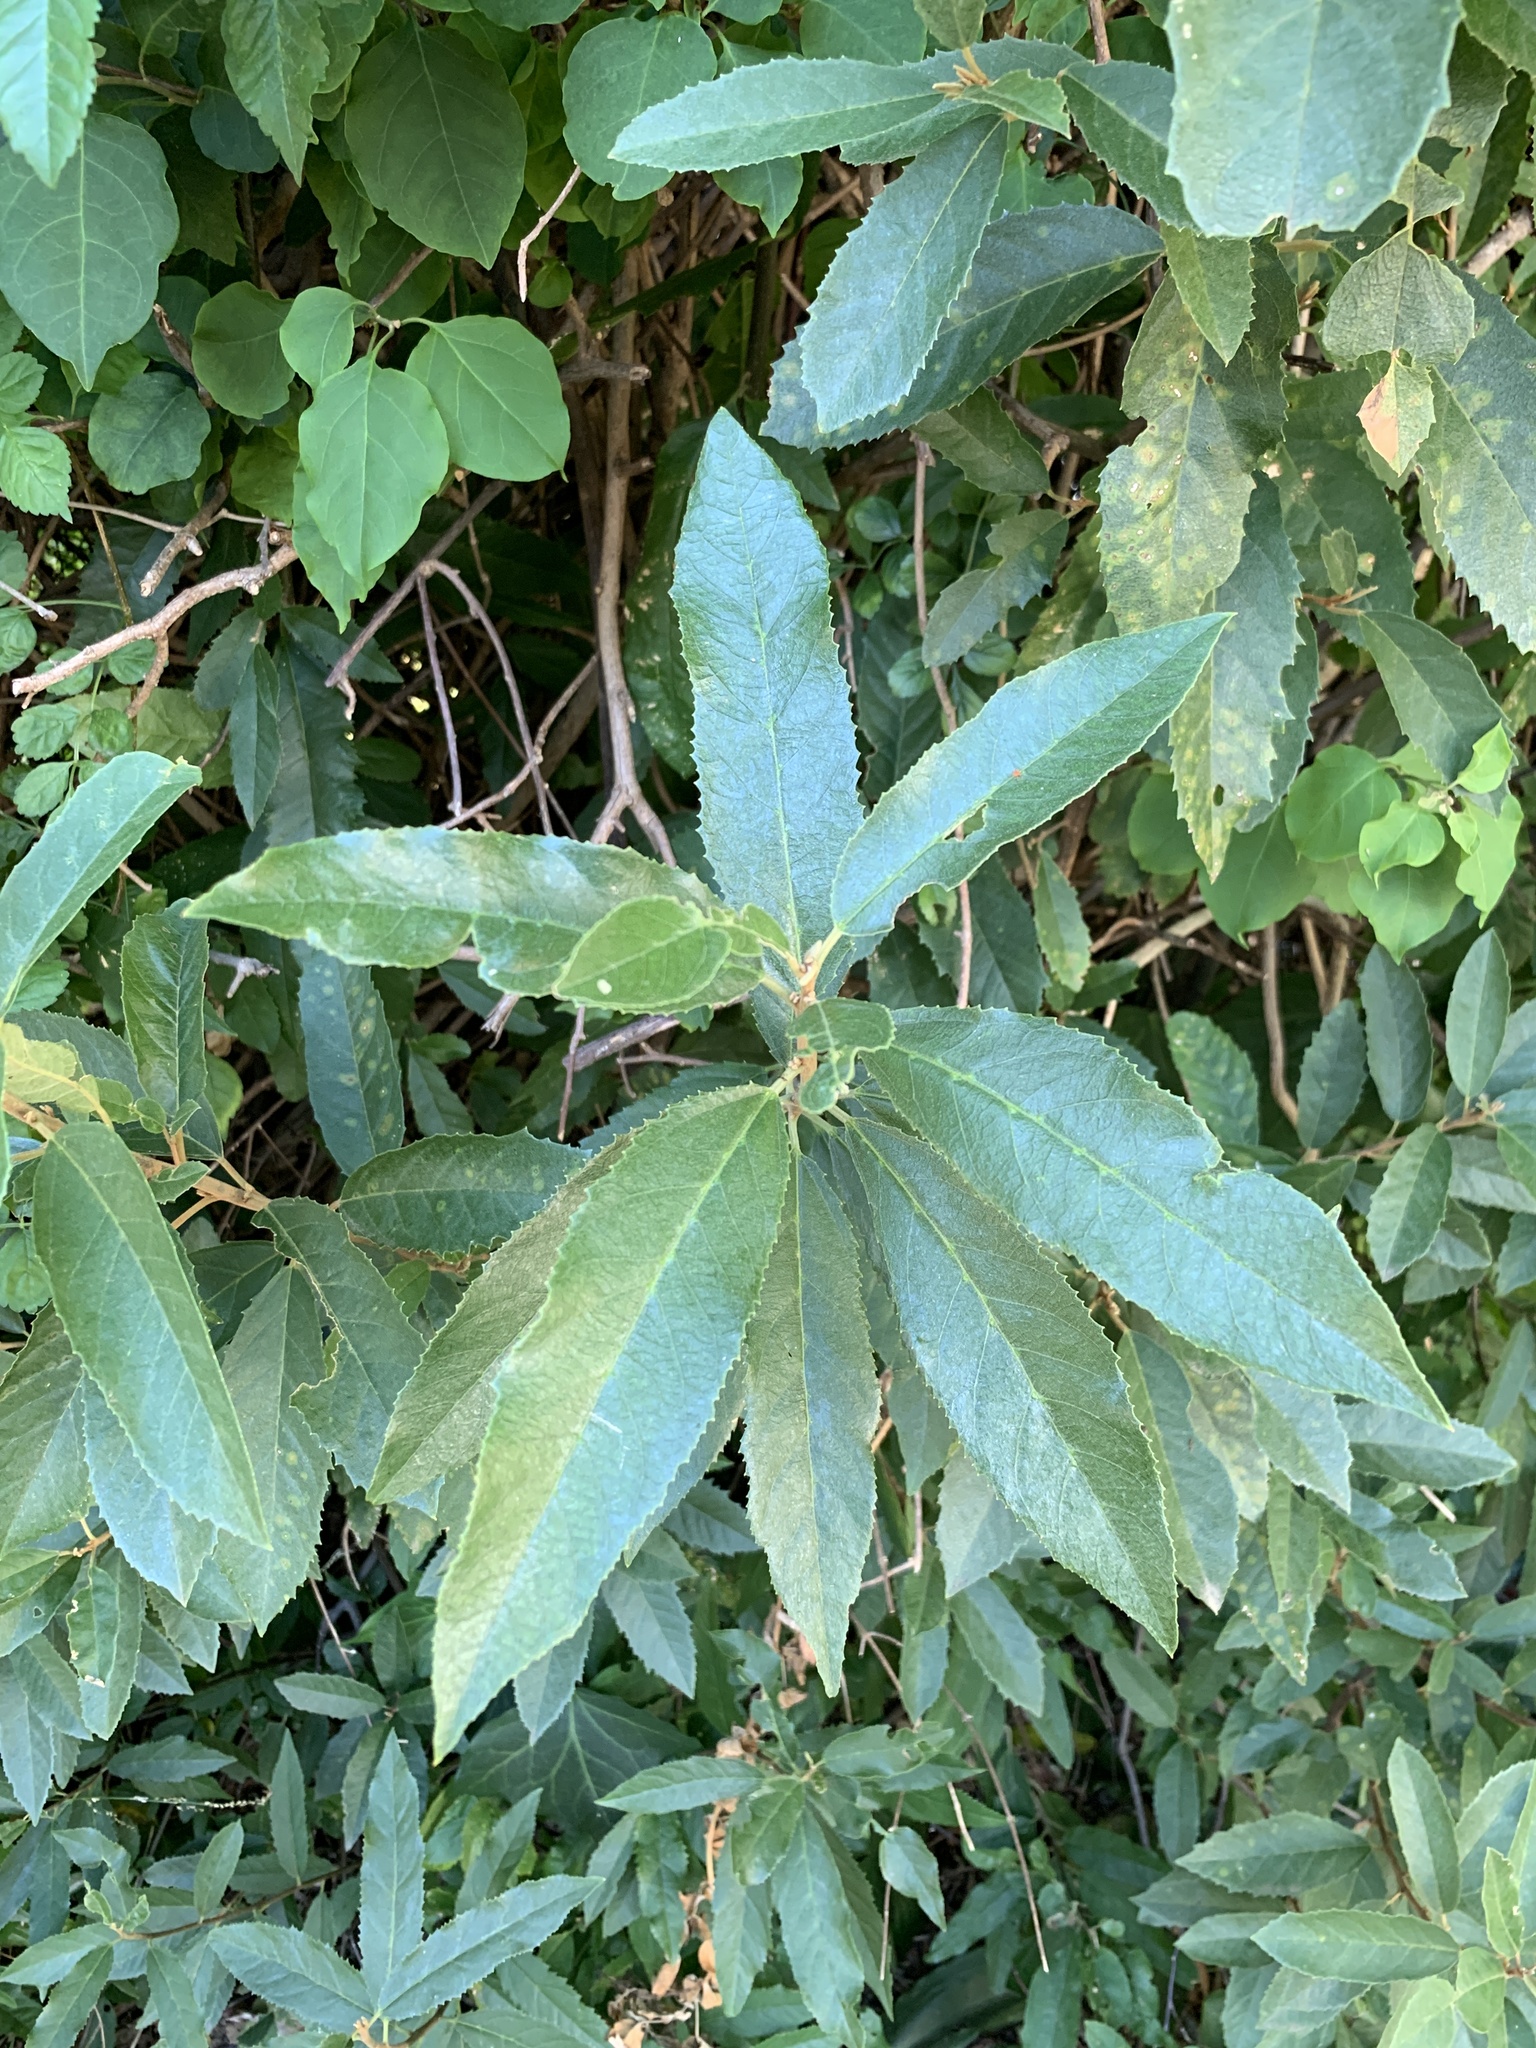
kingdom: Plantae
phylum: Tracheophyta
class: Magnoliopsida
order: Malpighiales
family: Achariaceae
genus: Kiggelaria
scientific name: Kiggelaria africana
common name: Wild peach
